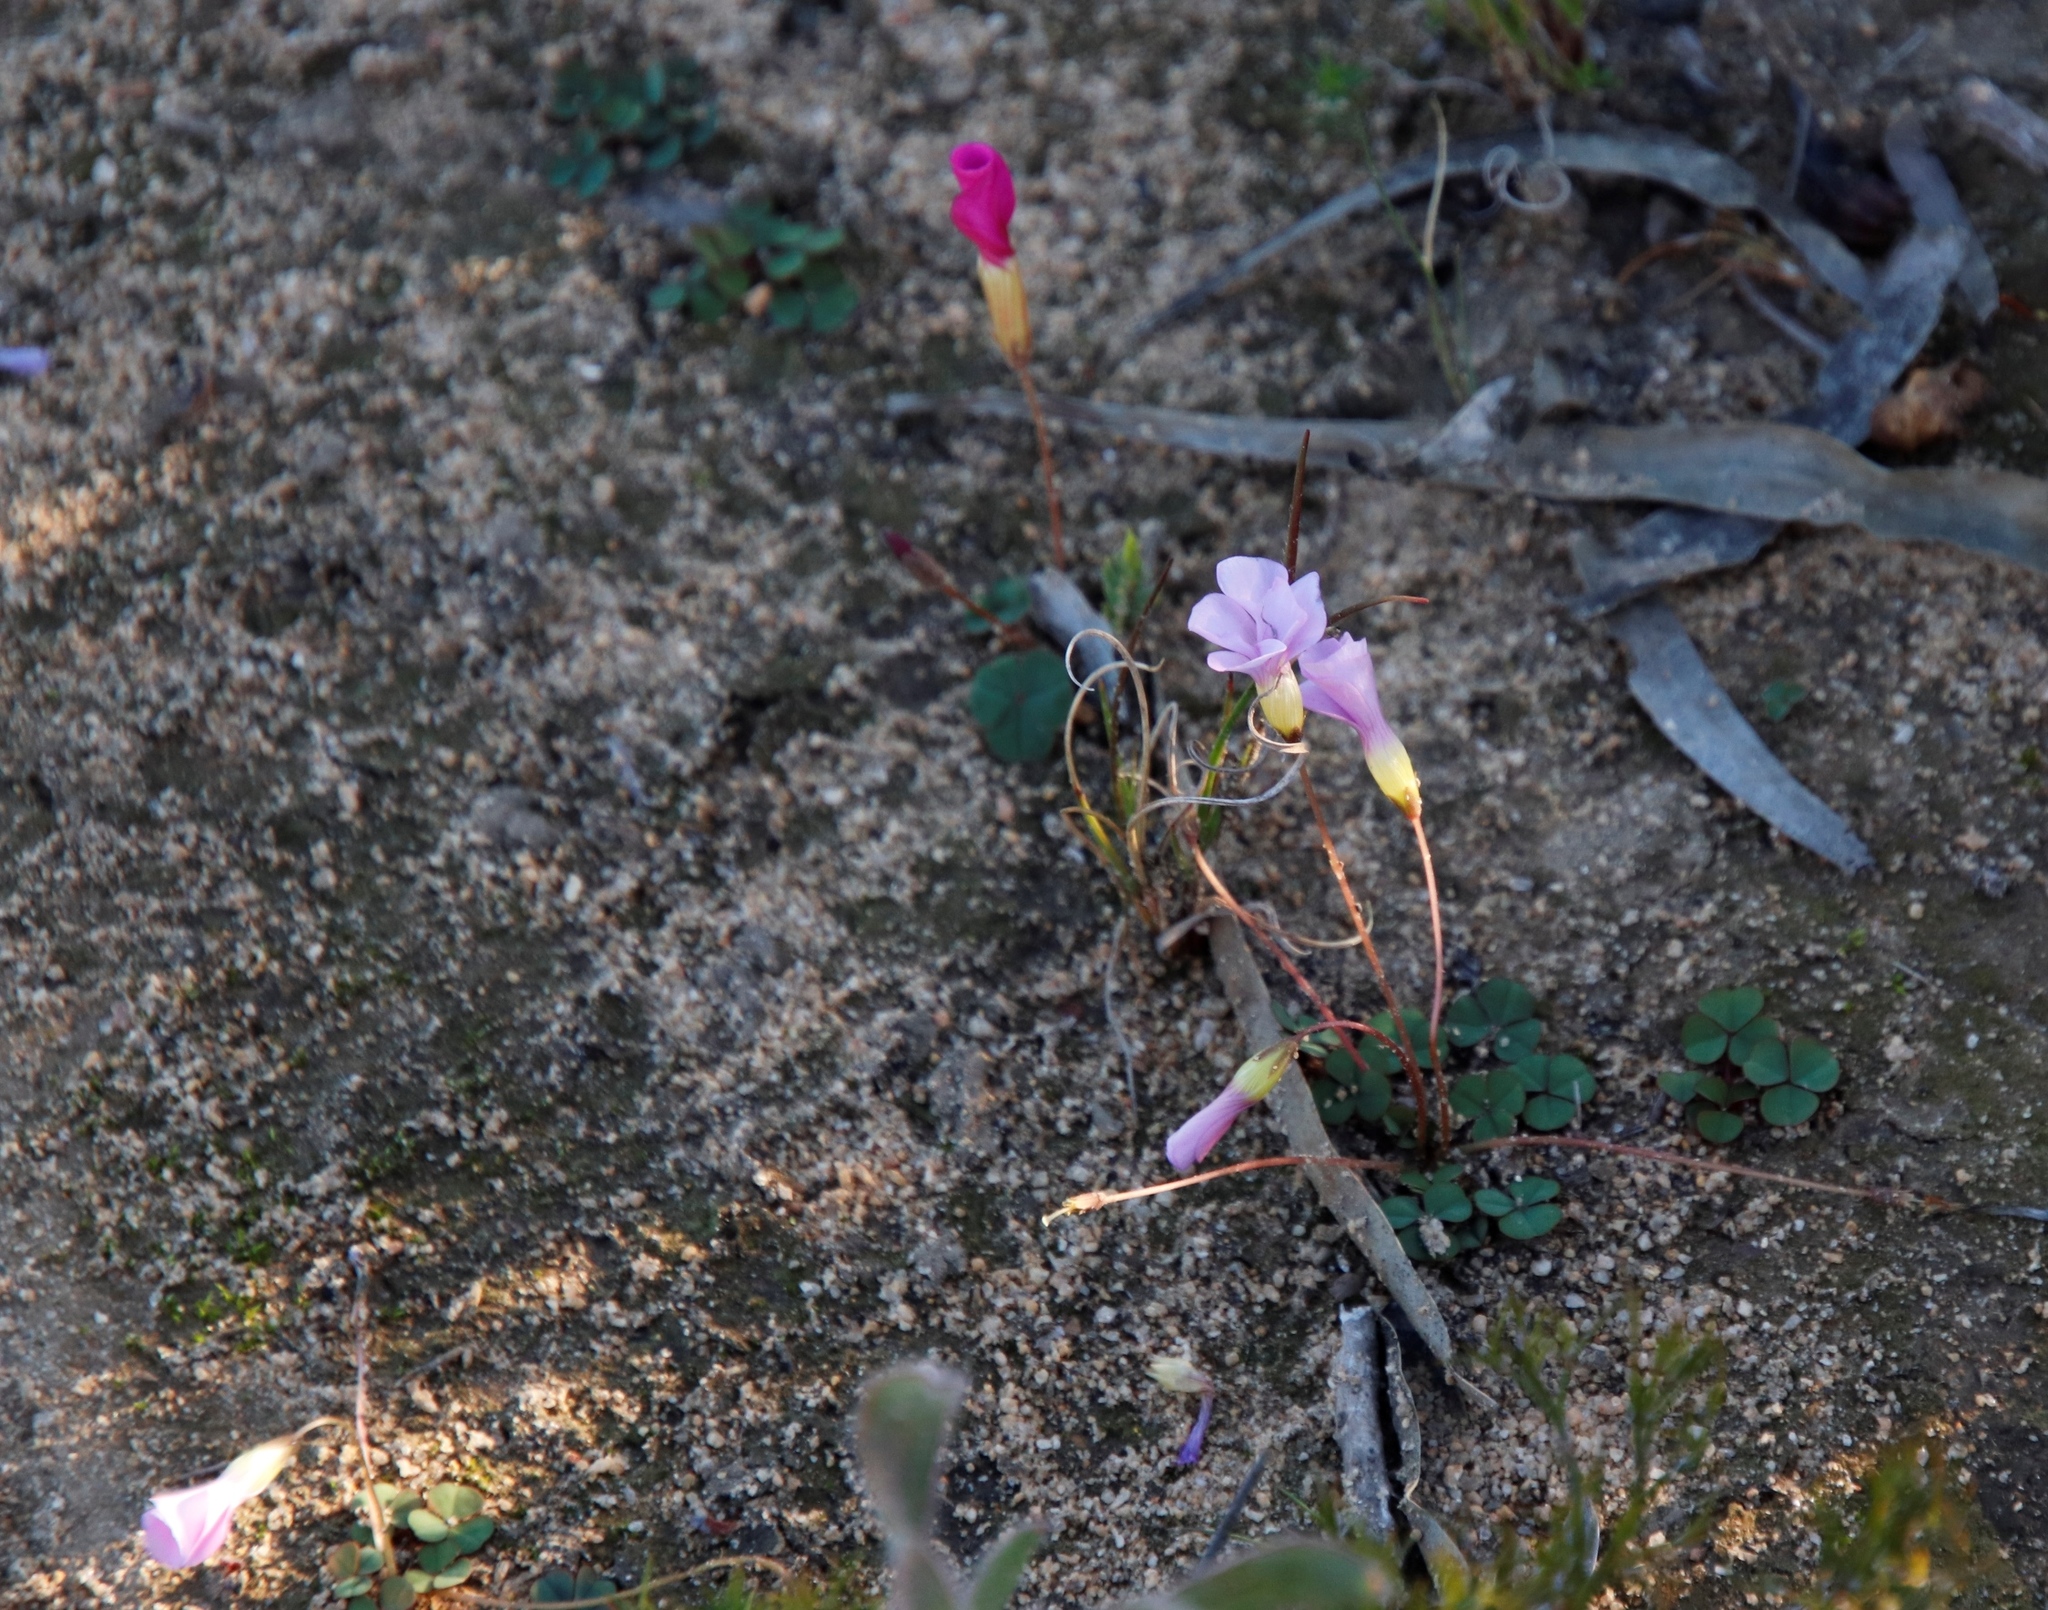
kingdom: Plantae
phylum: Tracheophyta
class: Magnoliopsida
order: Oxalidales
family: Oxalidaceae
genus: Oxalis
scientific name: Oxalis commutata
